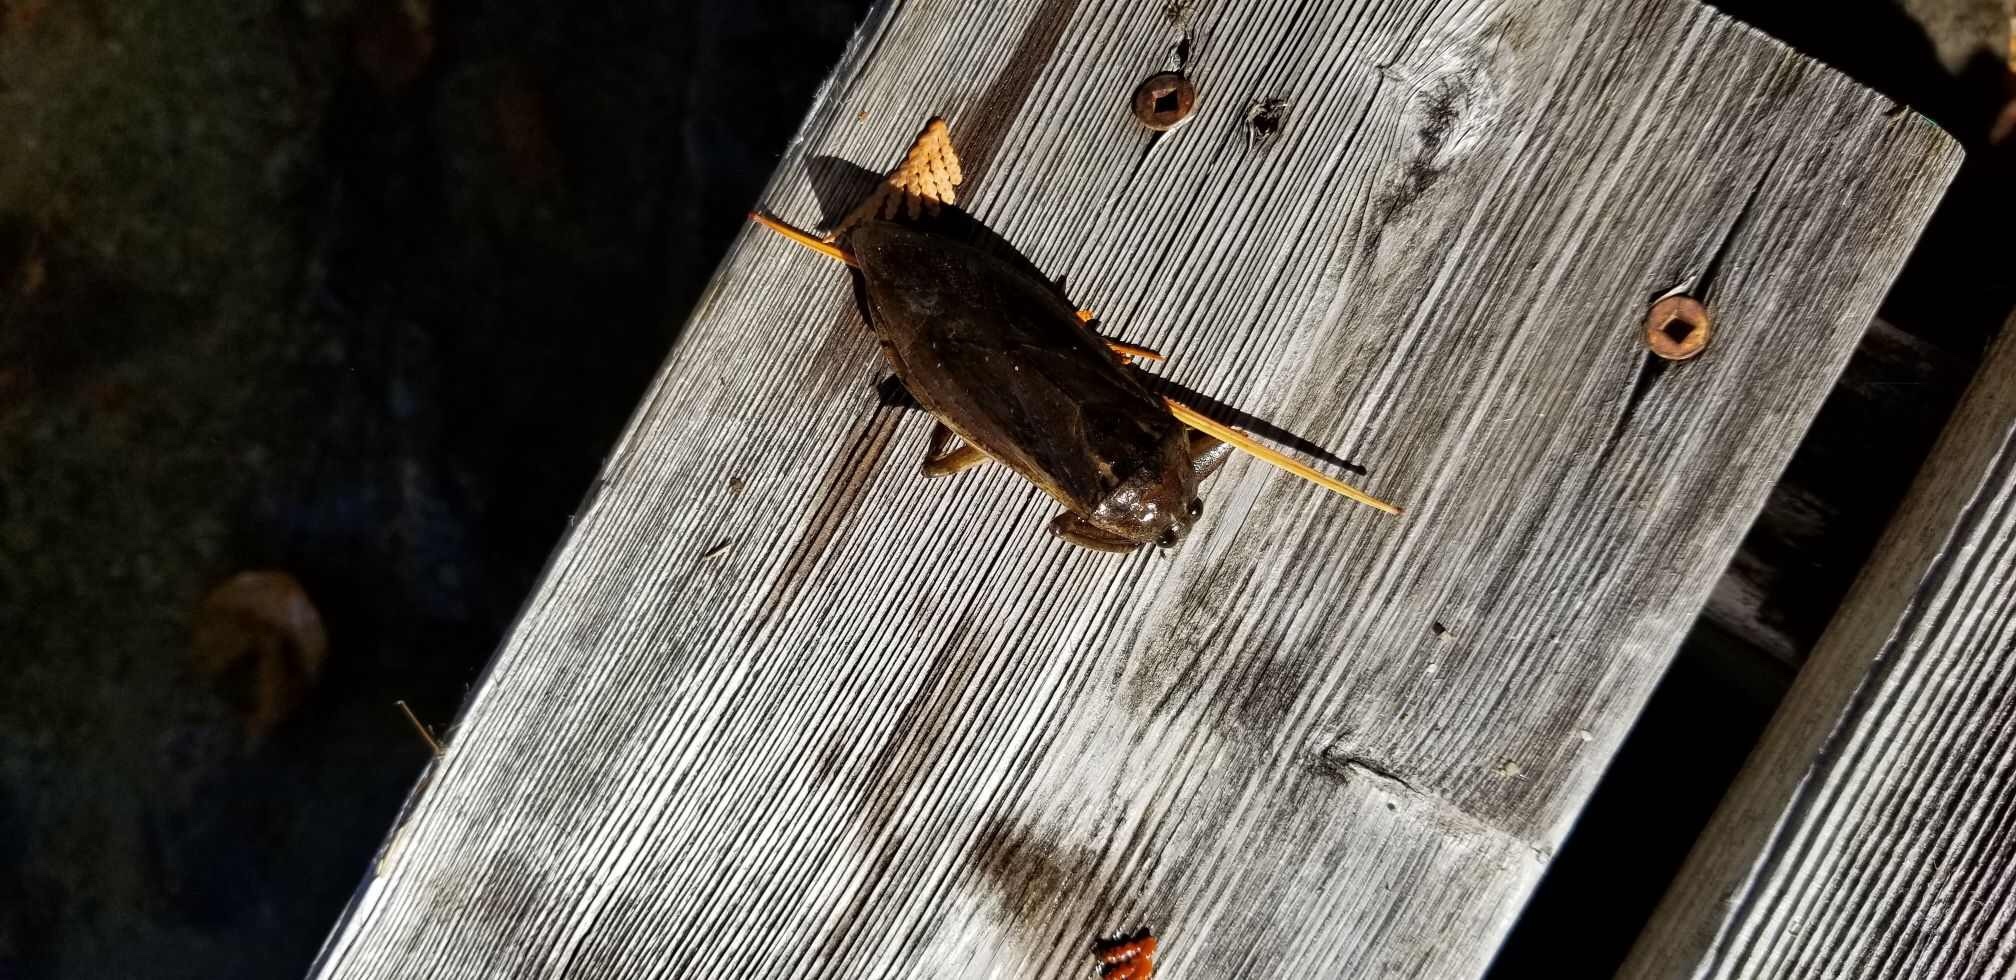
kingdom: Animalia
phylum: Arthropoda
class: Insecta
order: Hemiptera
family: Belostomatidae
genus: Lethocerus
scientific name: Lethocerus americanus
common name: Giant water bug
